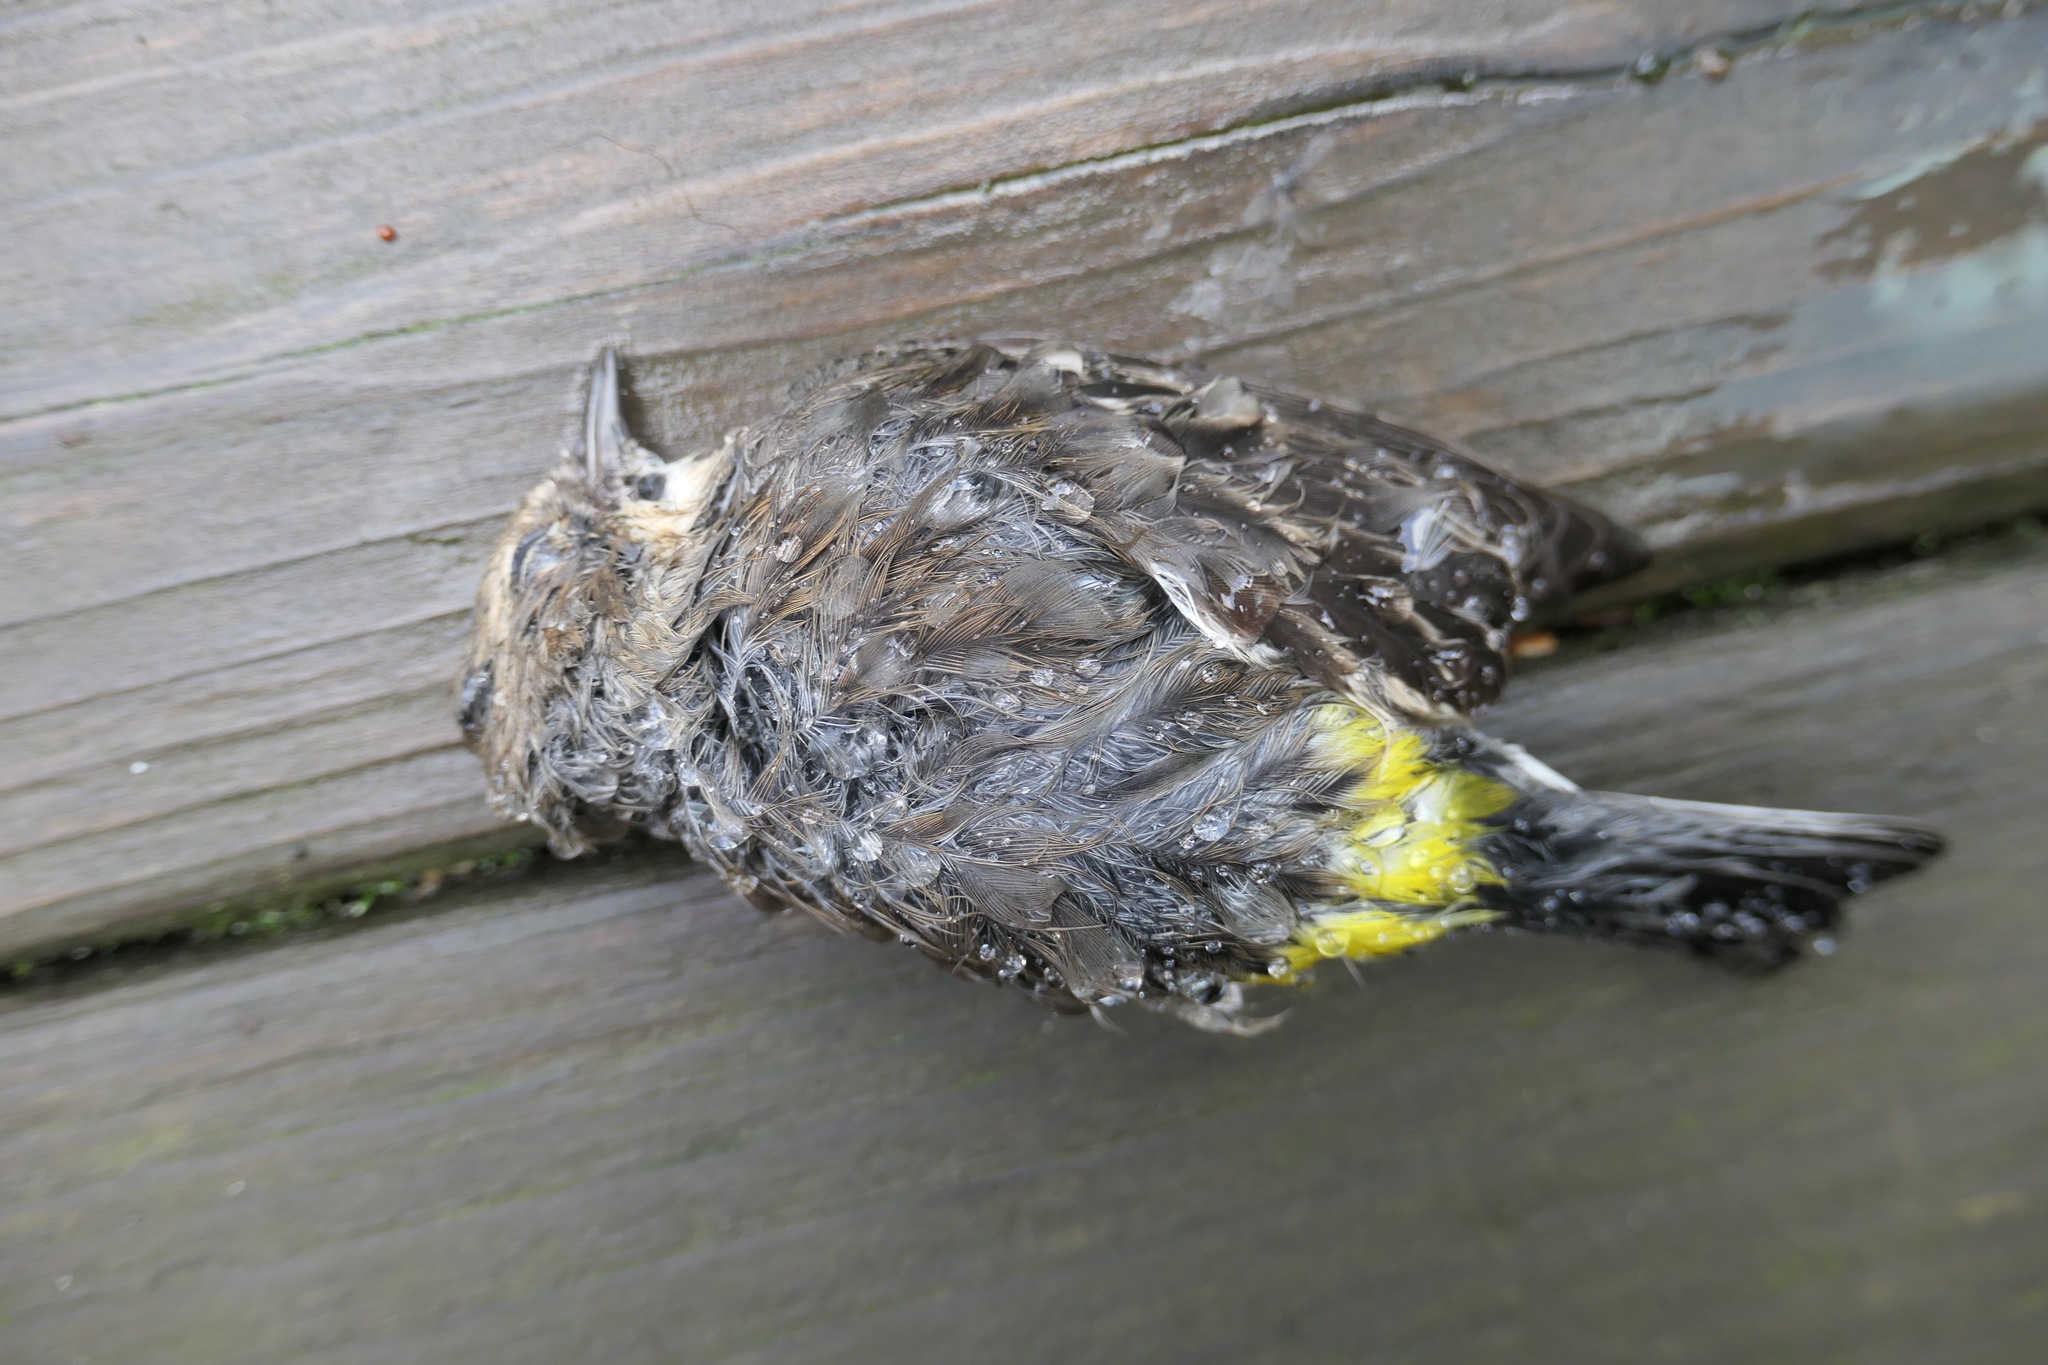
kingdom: Animalia
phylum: Chordata
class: Aves
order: Passeriformes
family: Parulidae
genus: Setophaga
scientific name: Setophaga coronata
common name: Myrtle warbler
